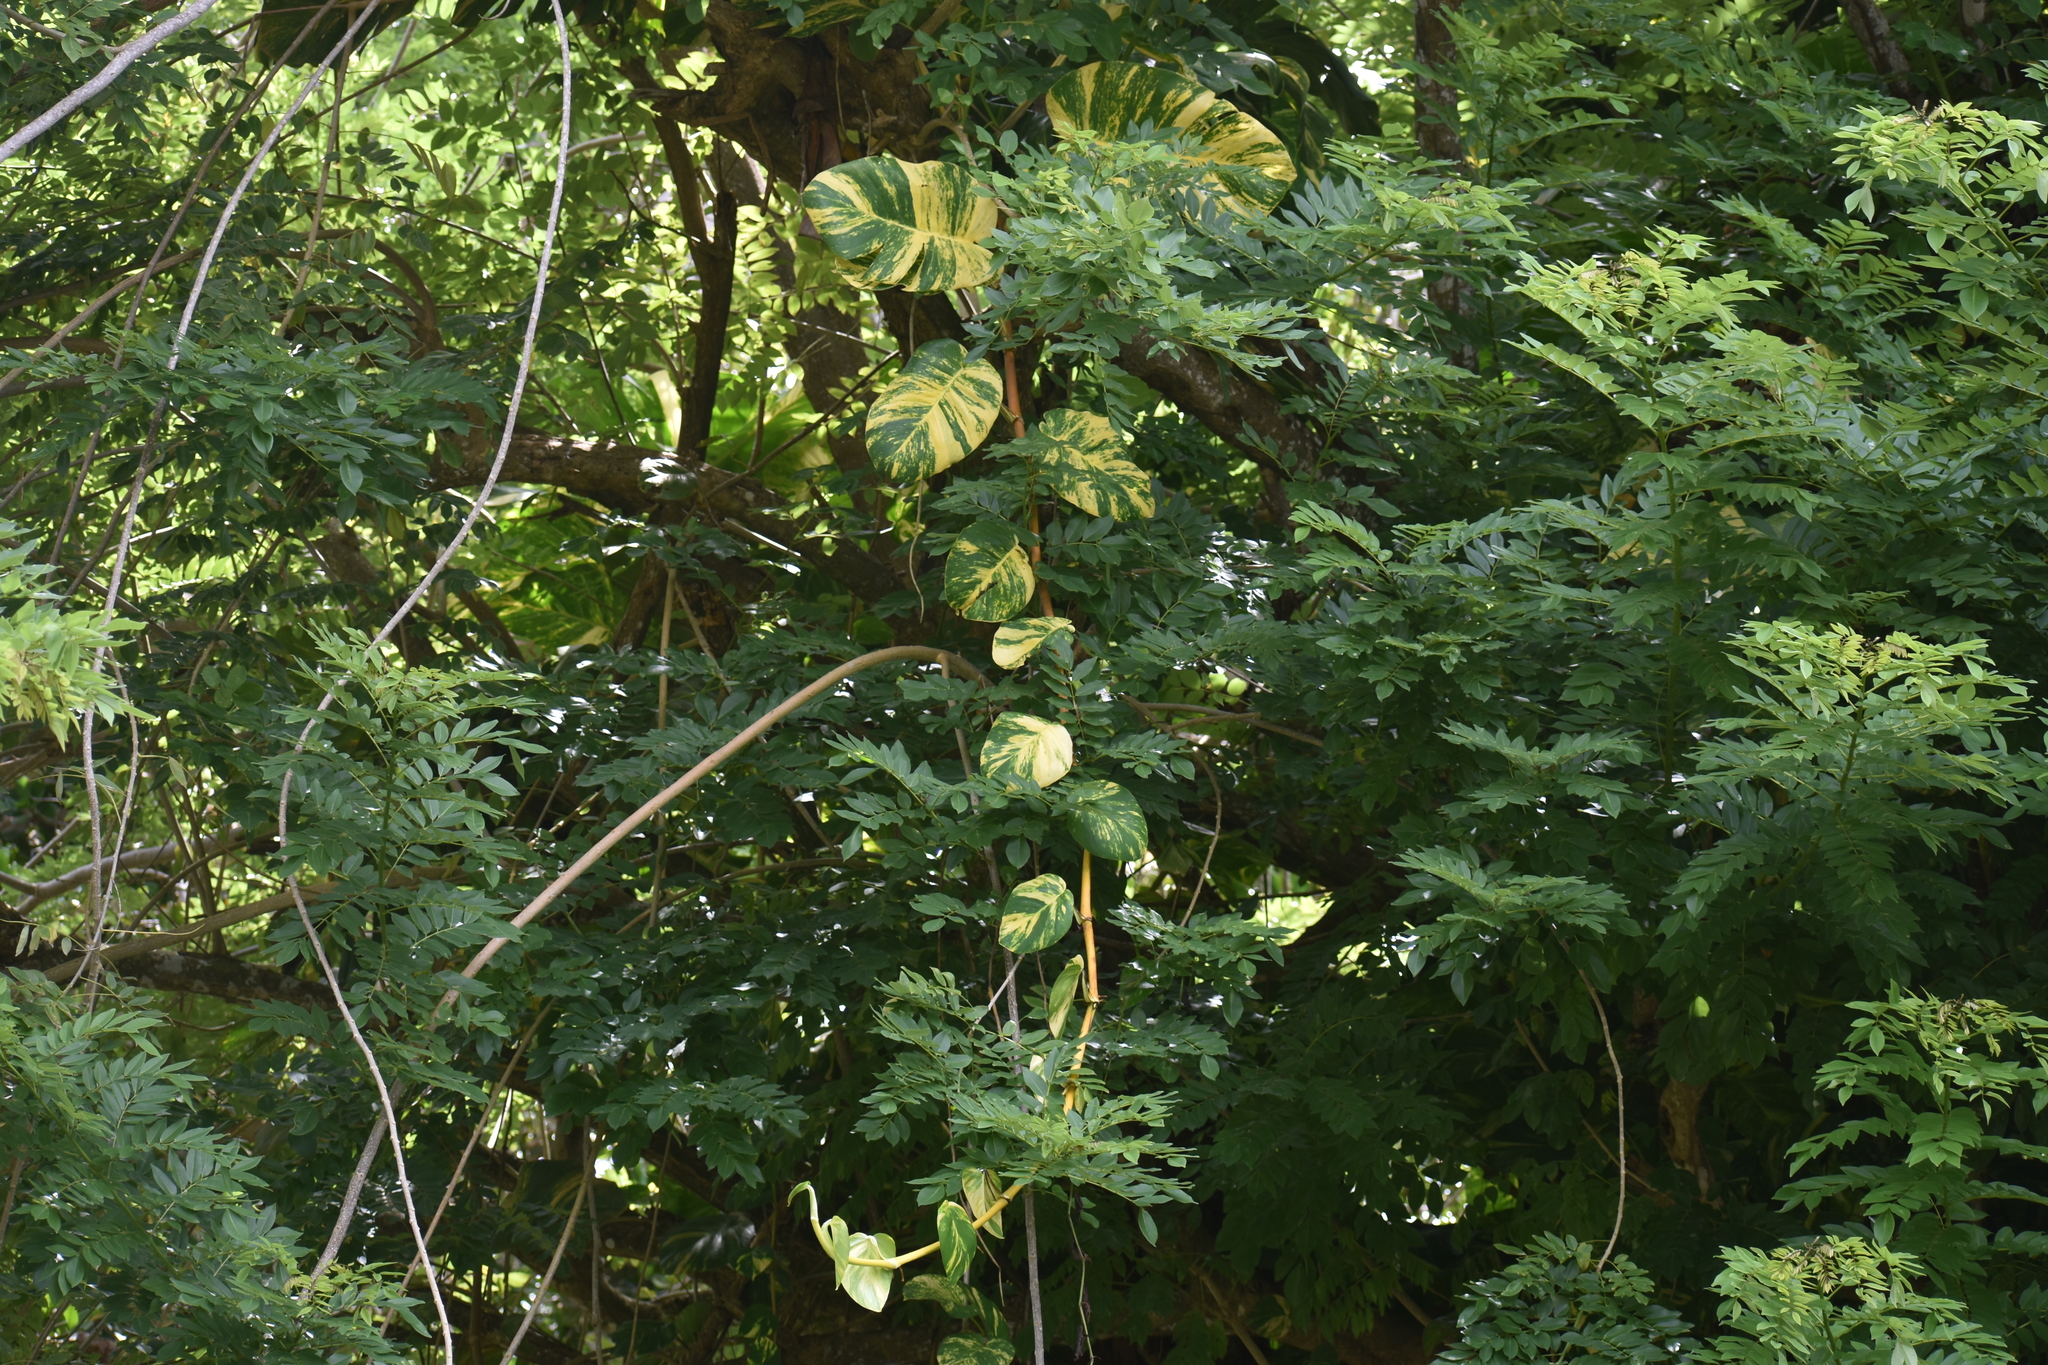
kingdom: Plantae
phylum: Tracheophyta
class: Liliopsida
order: Alismatales
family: Araceae
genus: Epipremnum
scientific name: Epipremnum aureum
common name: Golden hunter's-robe
